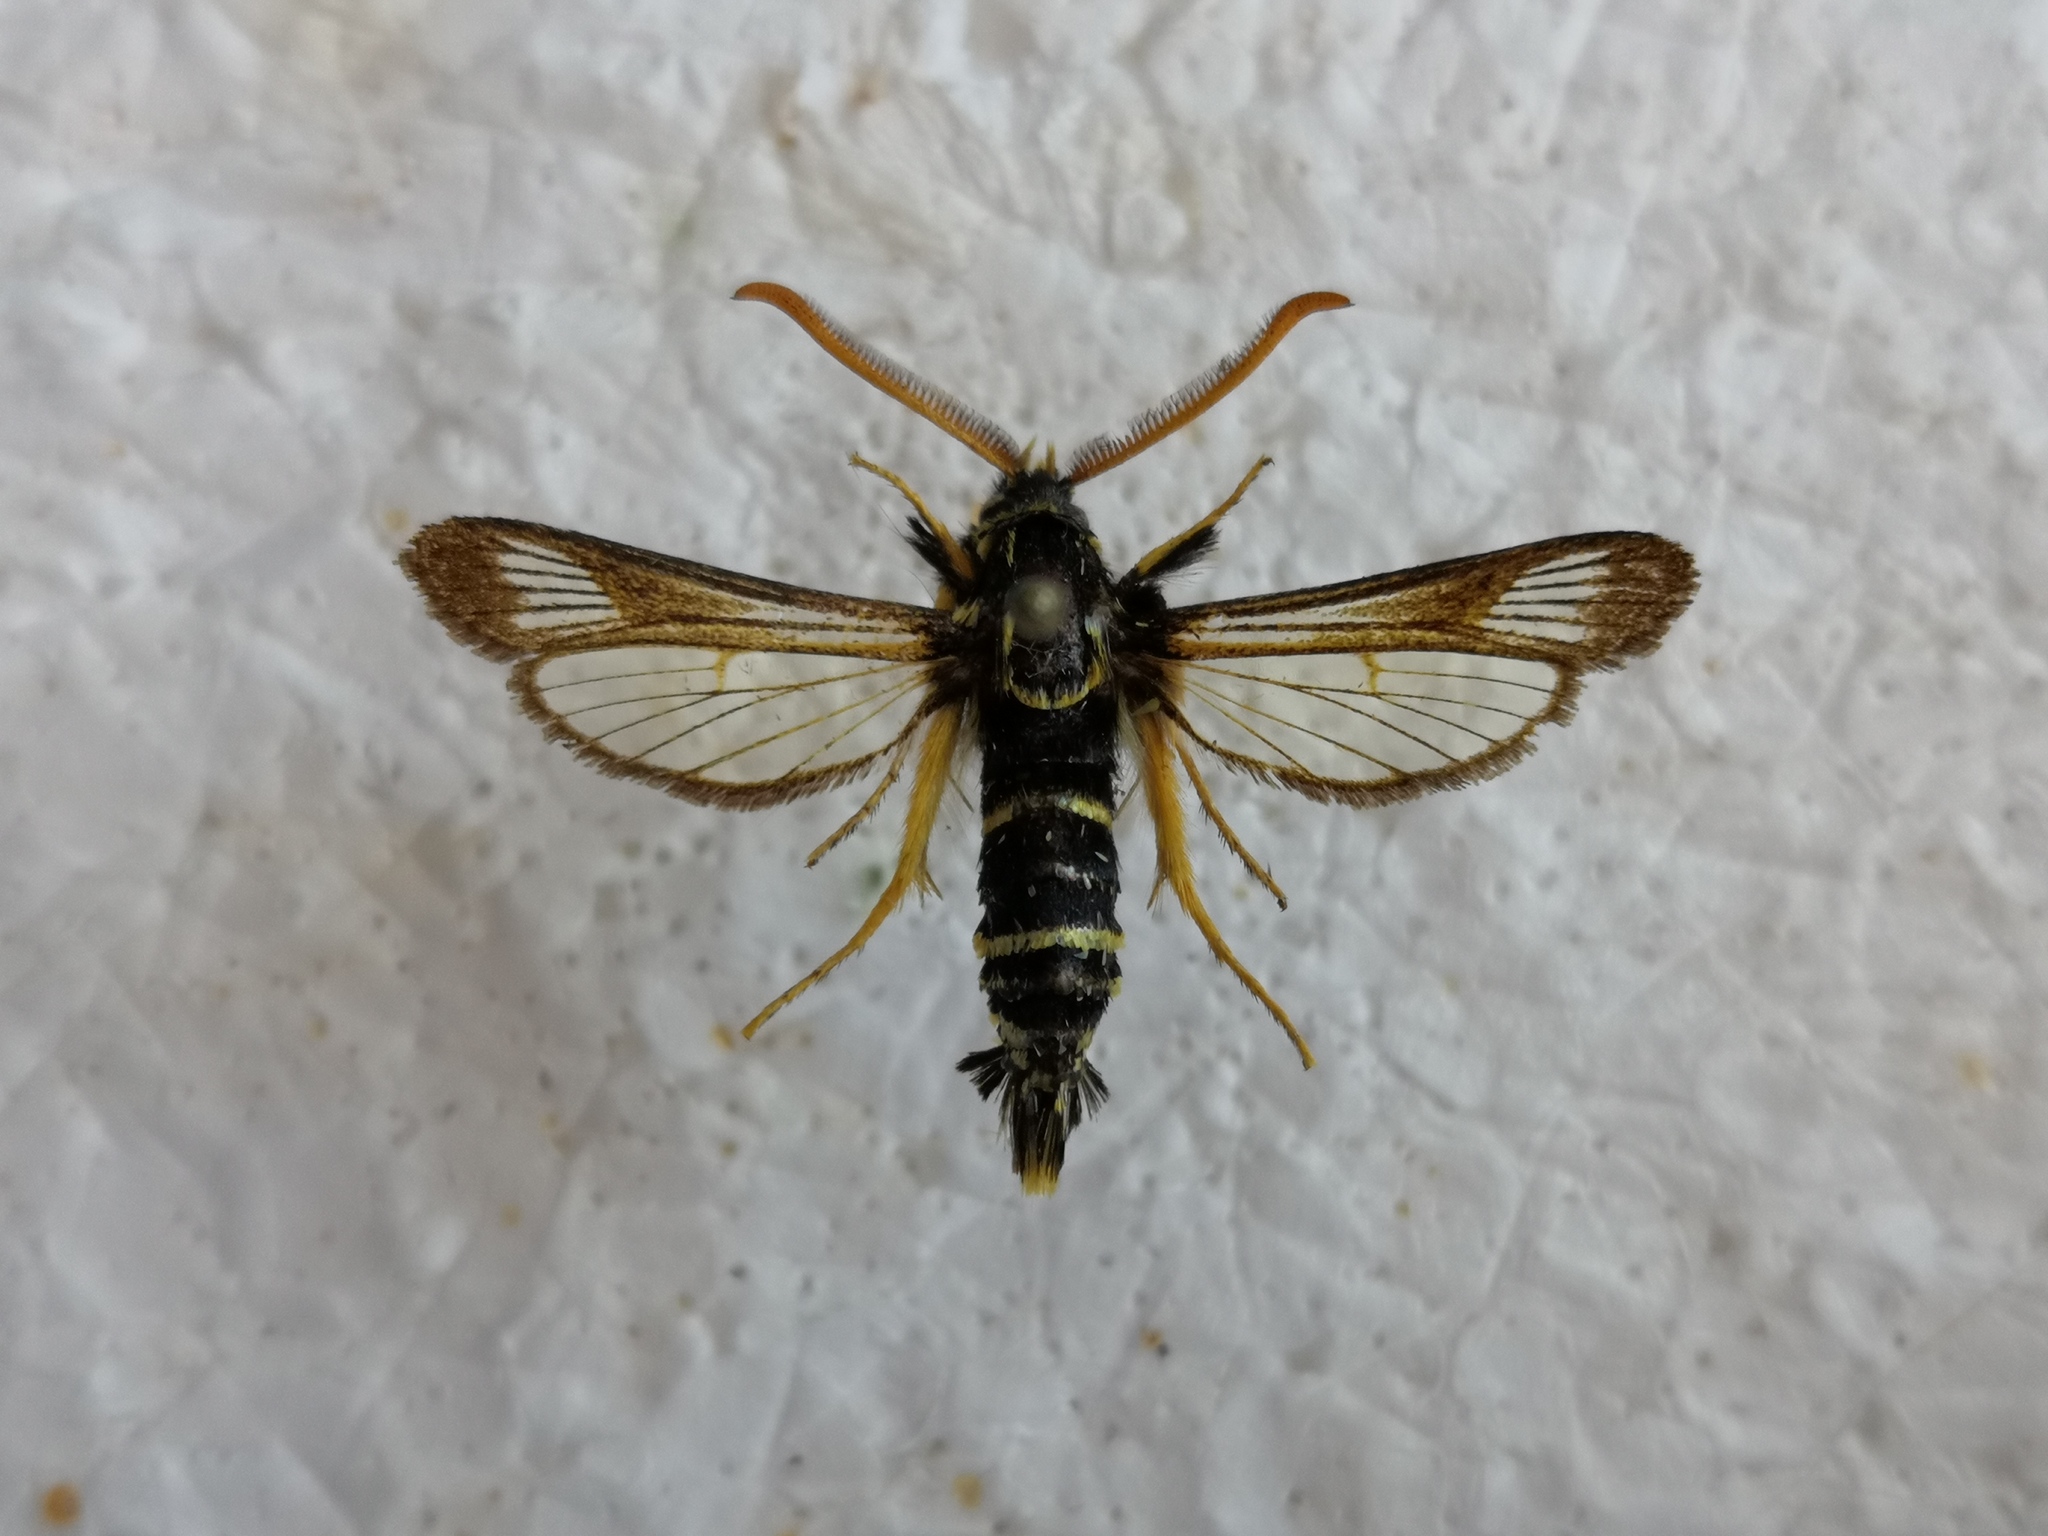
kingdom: Animalia
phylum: Arthropoda
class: Insecta
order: Lepidoptera
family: Sesiidae
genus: Paranthrene
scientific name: Paranthrene insolitus
